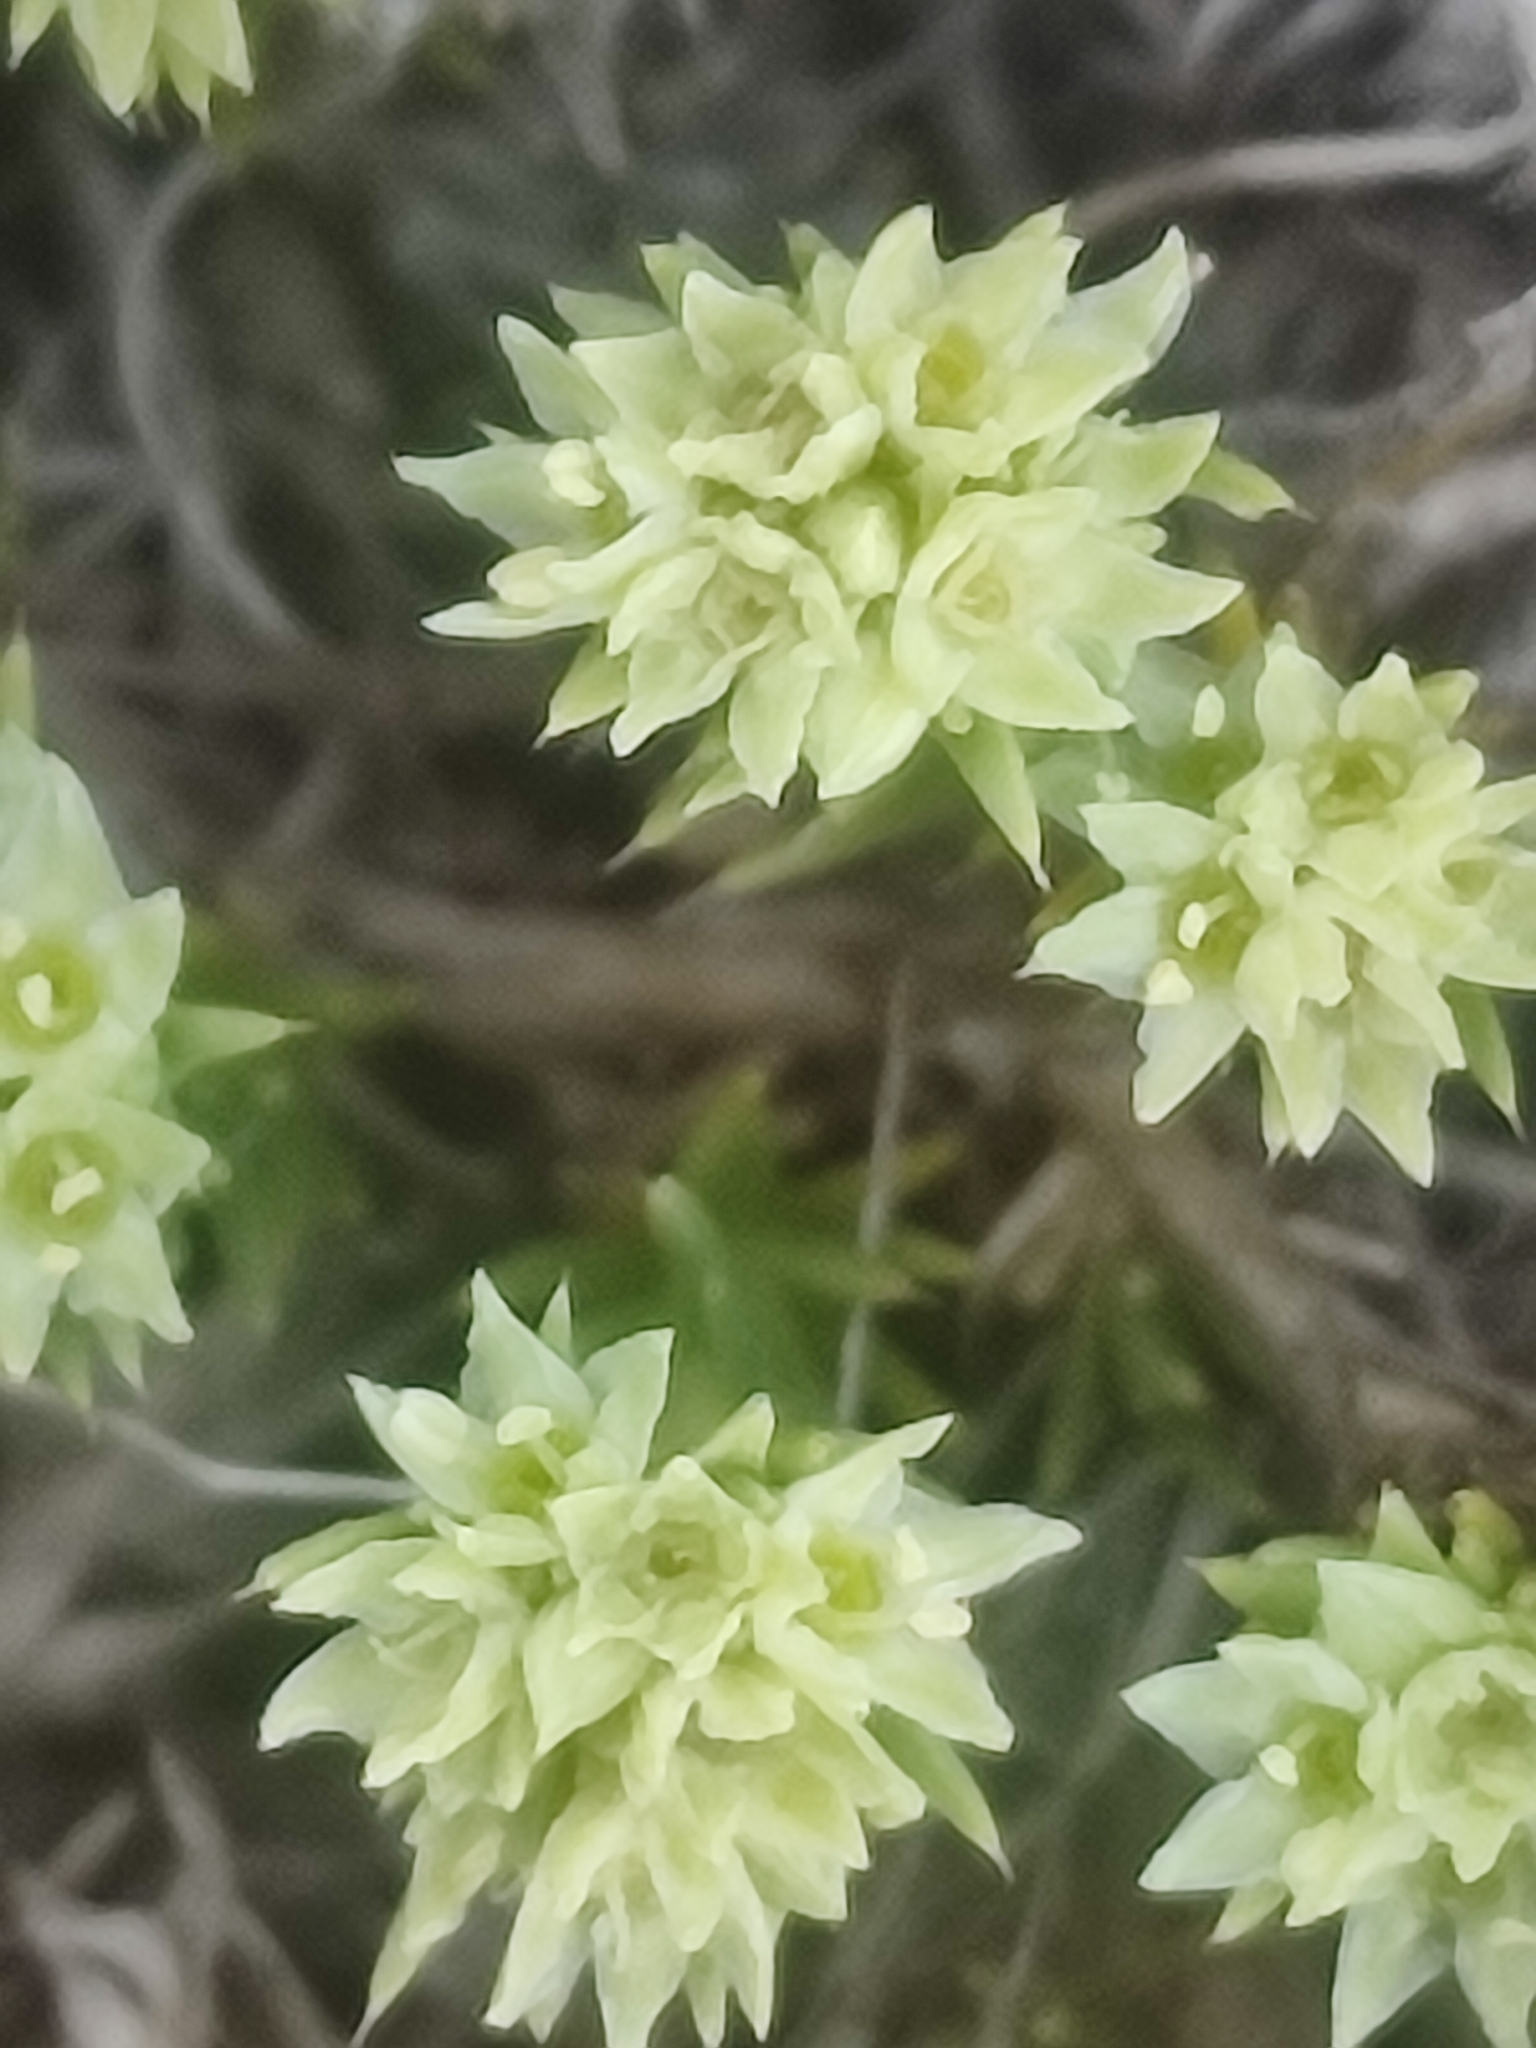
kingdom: Plantae
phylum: Tracheophyta
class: Magnoliopsida
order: Caryophyllales
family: Caryophyllaceae
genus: Scleranthus
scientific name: Scleranthus diander
